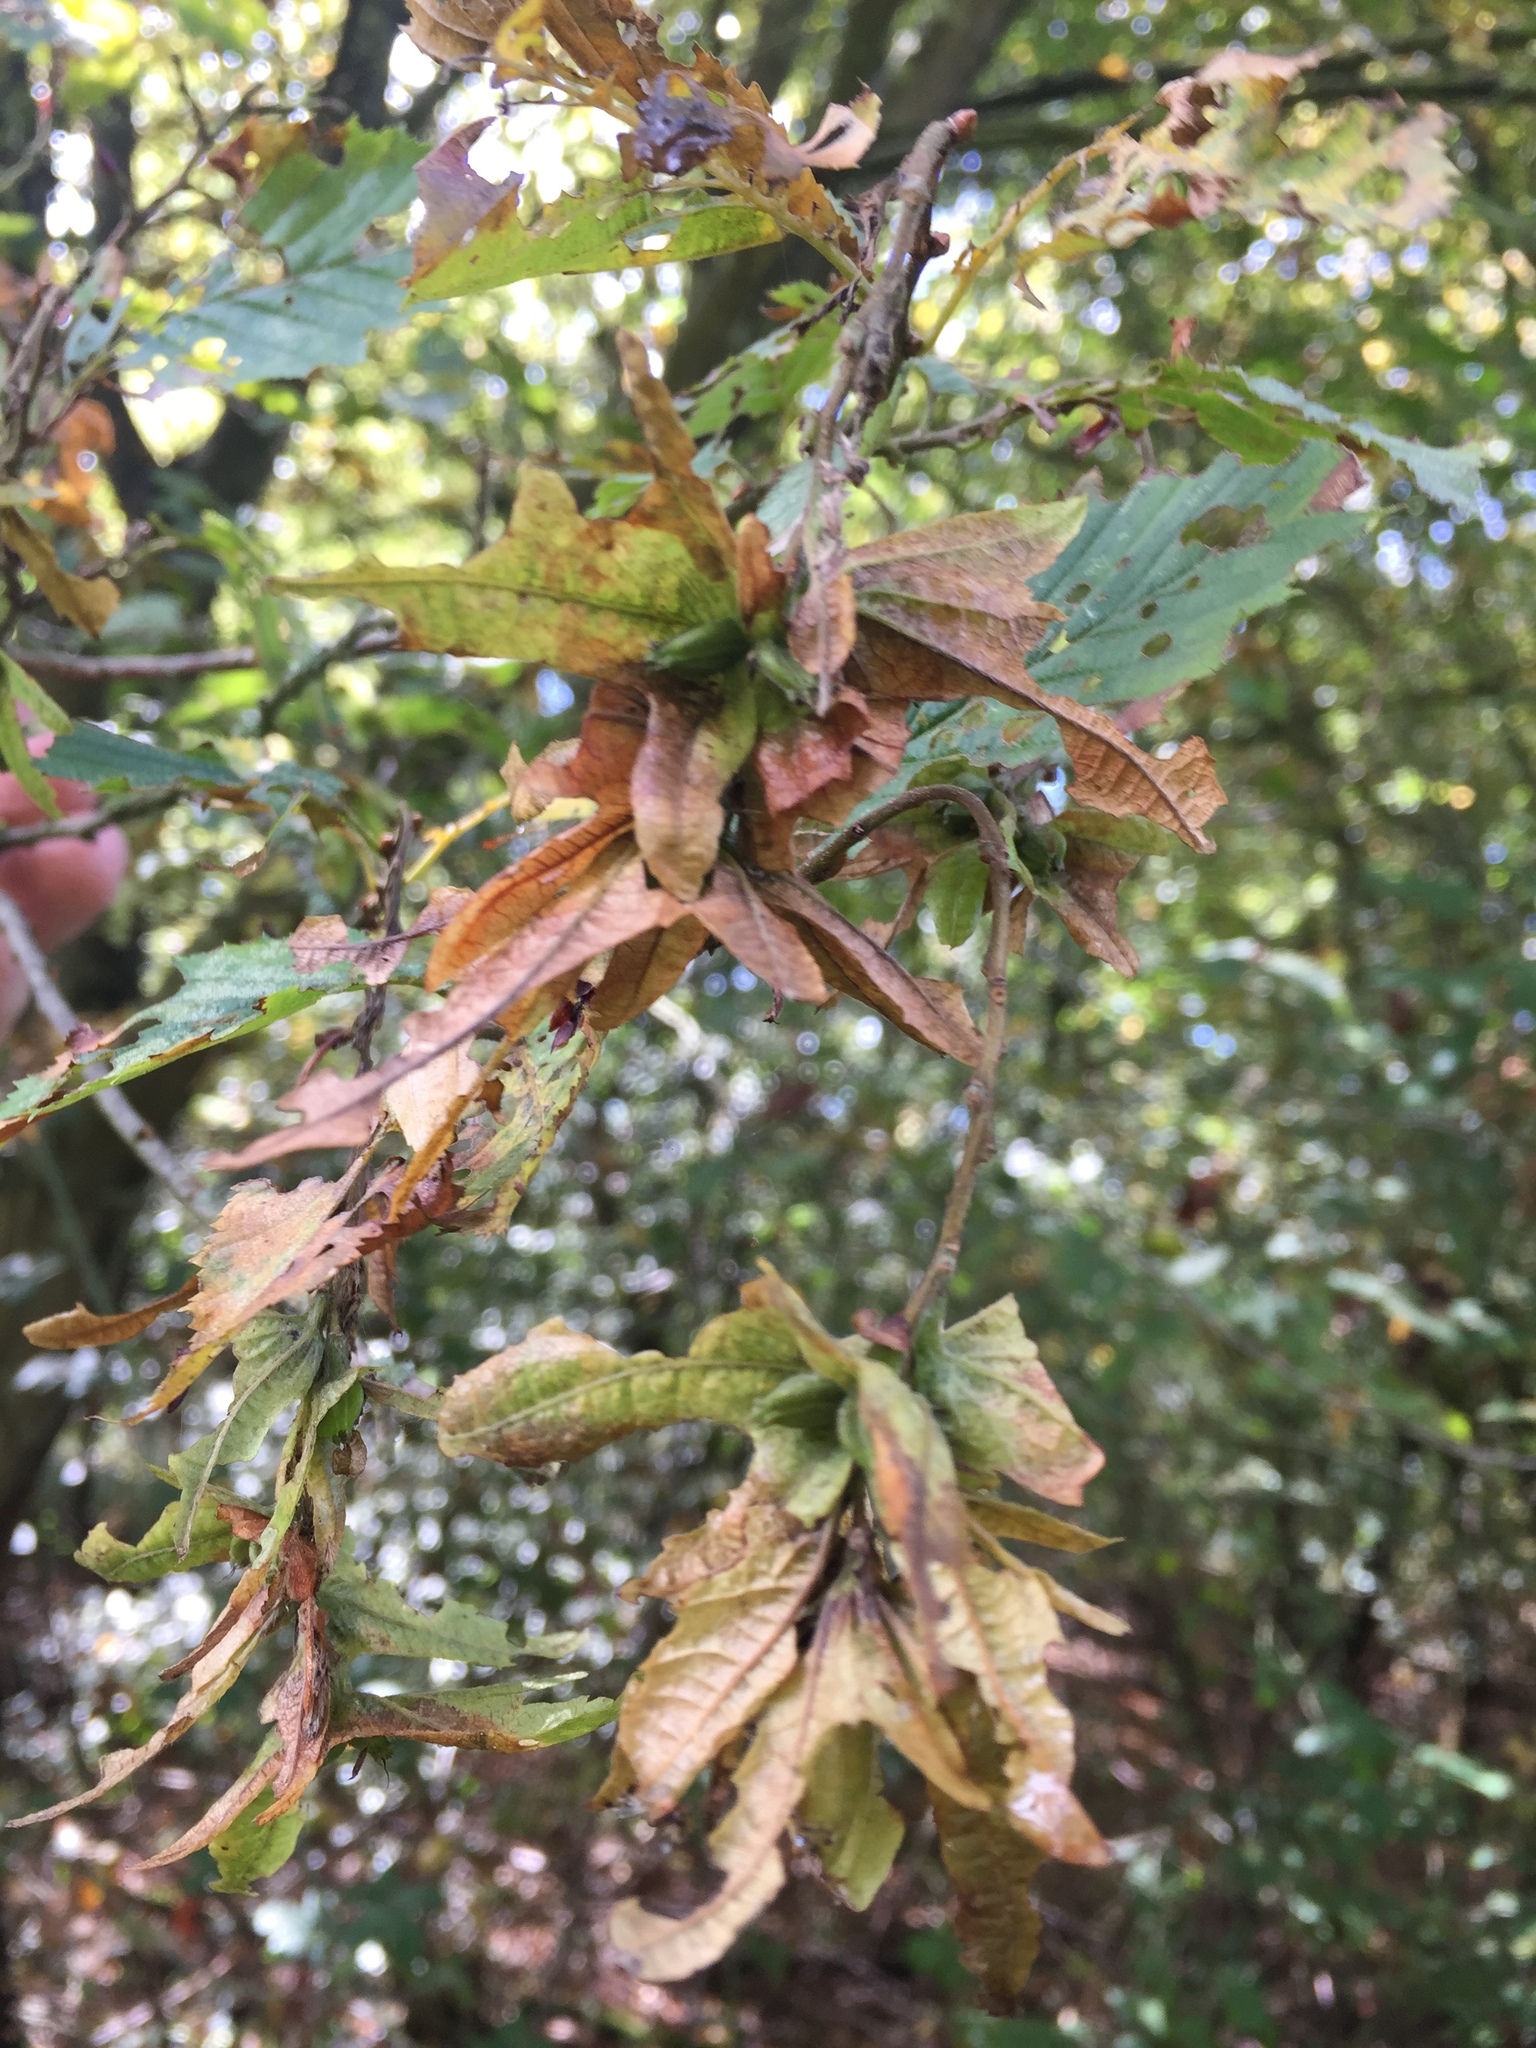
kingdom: Plantae
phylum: Tracheophyta
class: Magnoliopsida
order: Fagales
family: Betulaceae
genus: Carpinus
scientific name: Carpinus betulus
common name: Hornbeam
